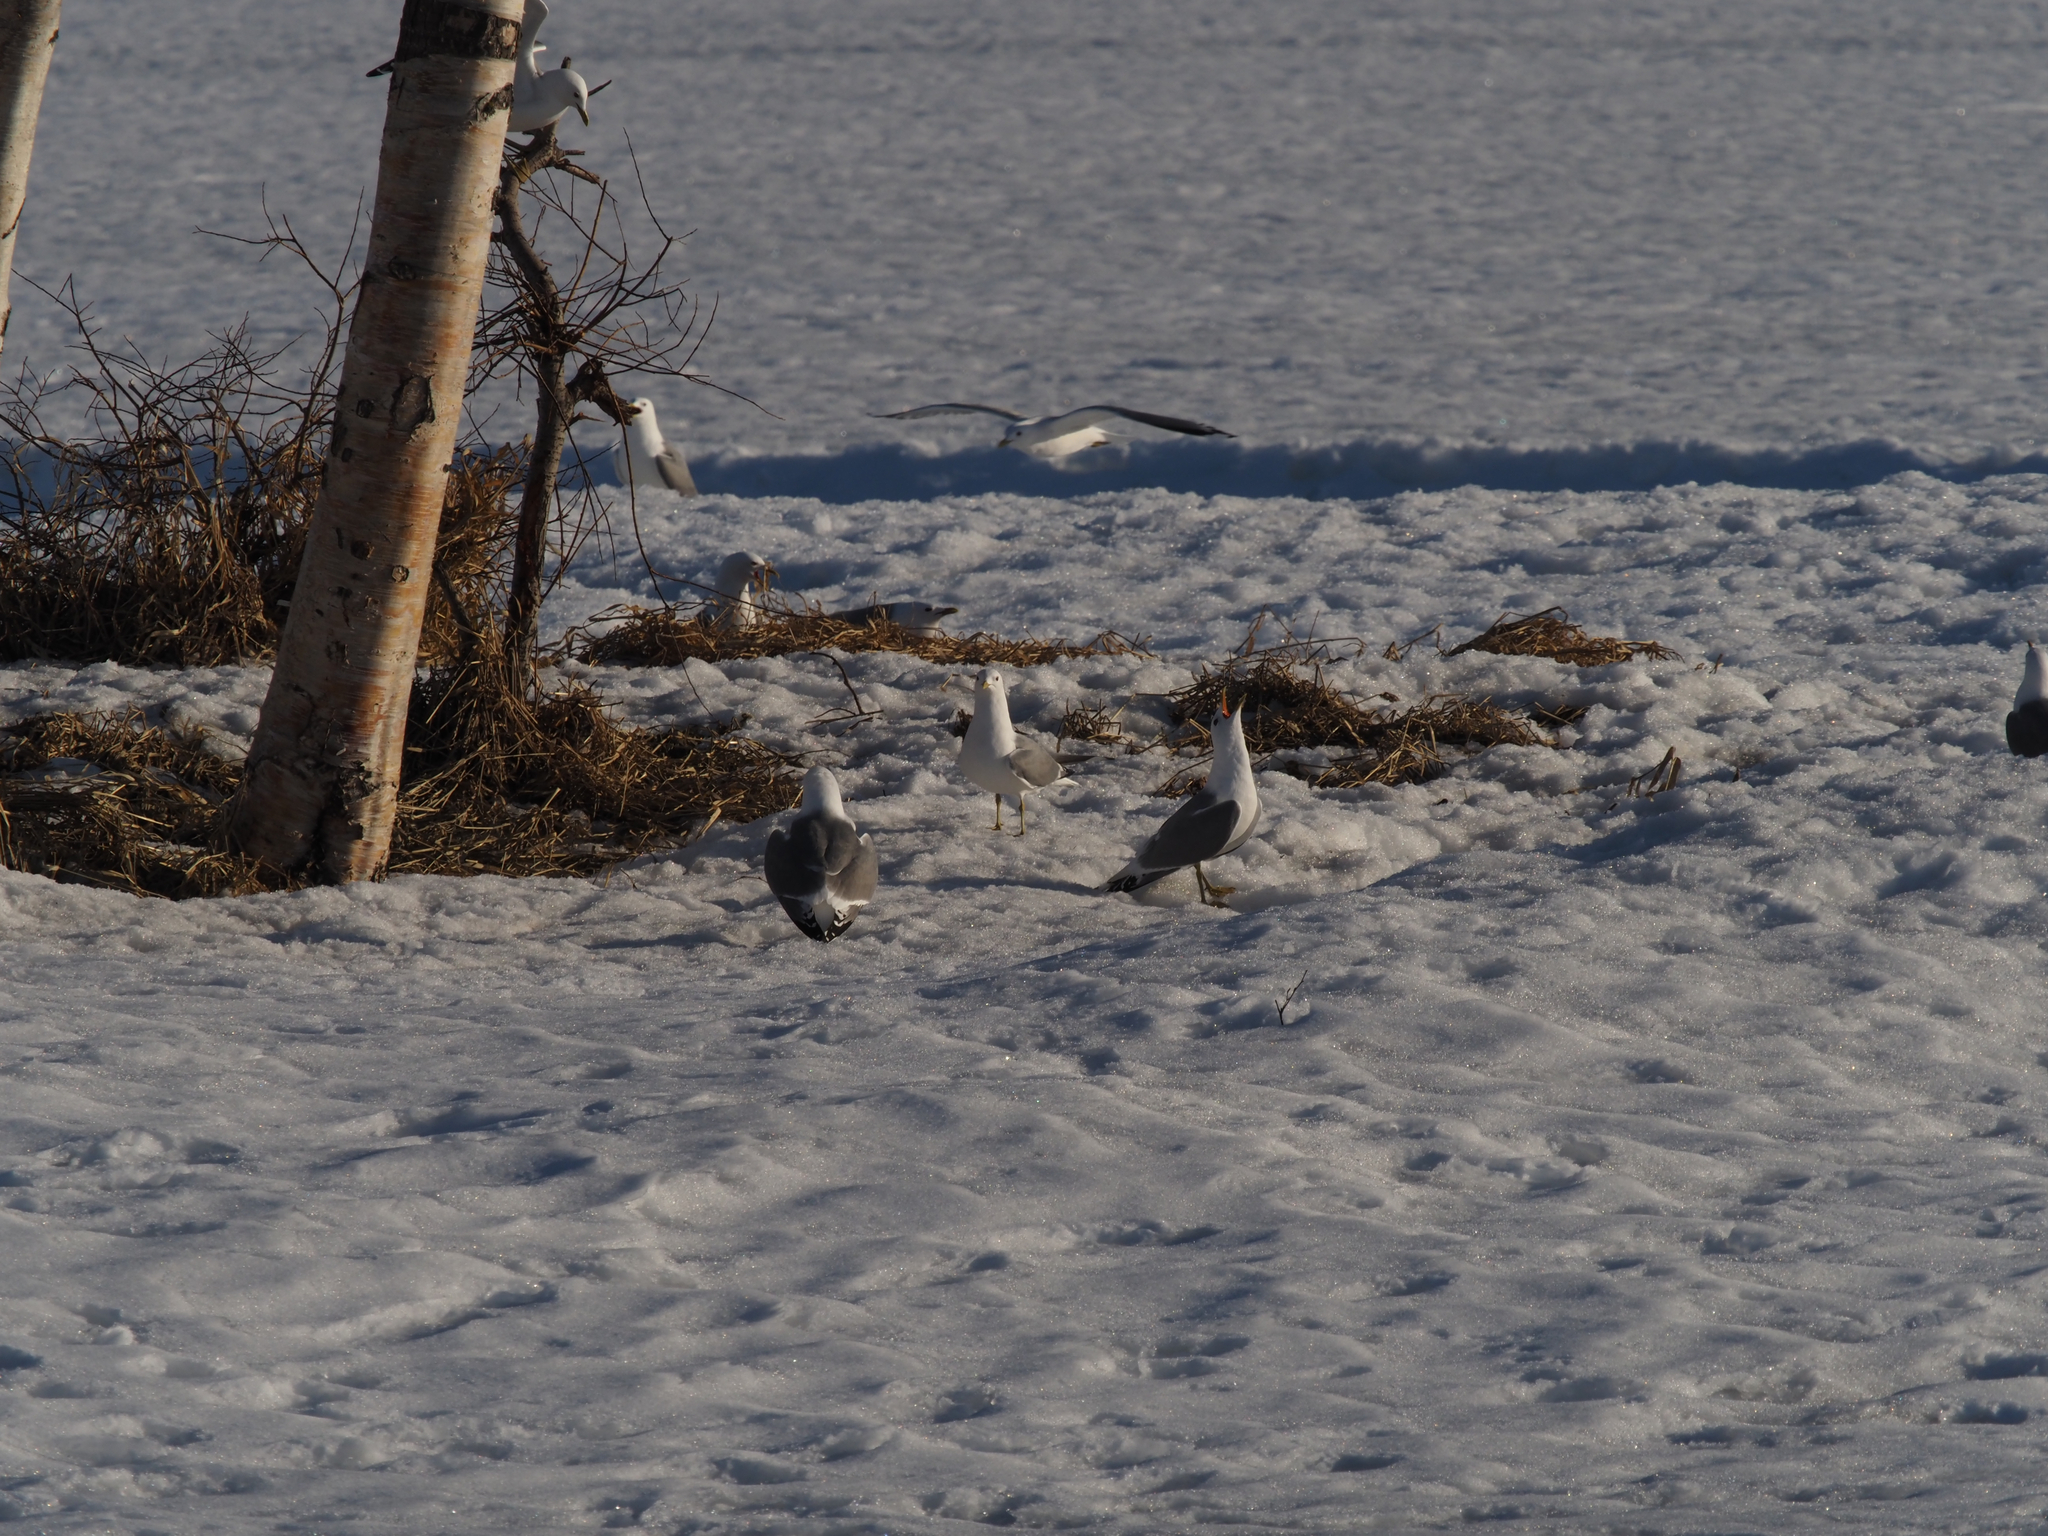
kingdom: Animalia
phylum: Chordata
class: Aves
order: Charadriiformes
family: Laridae
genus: Larus
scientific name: Larus brachyrhynchus
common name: Short-billed gull
